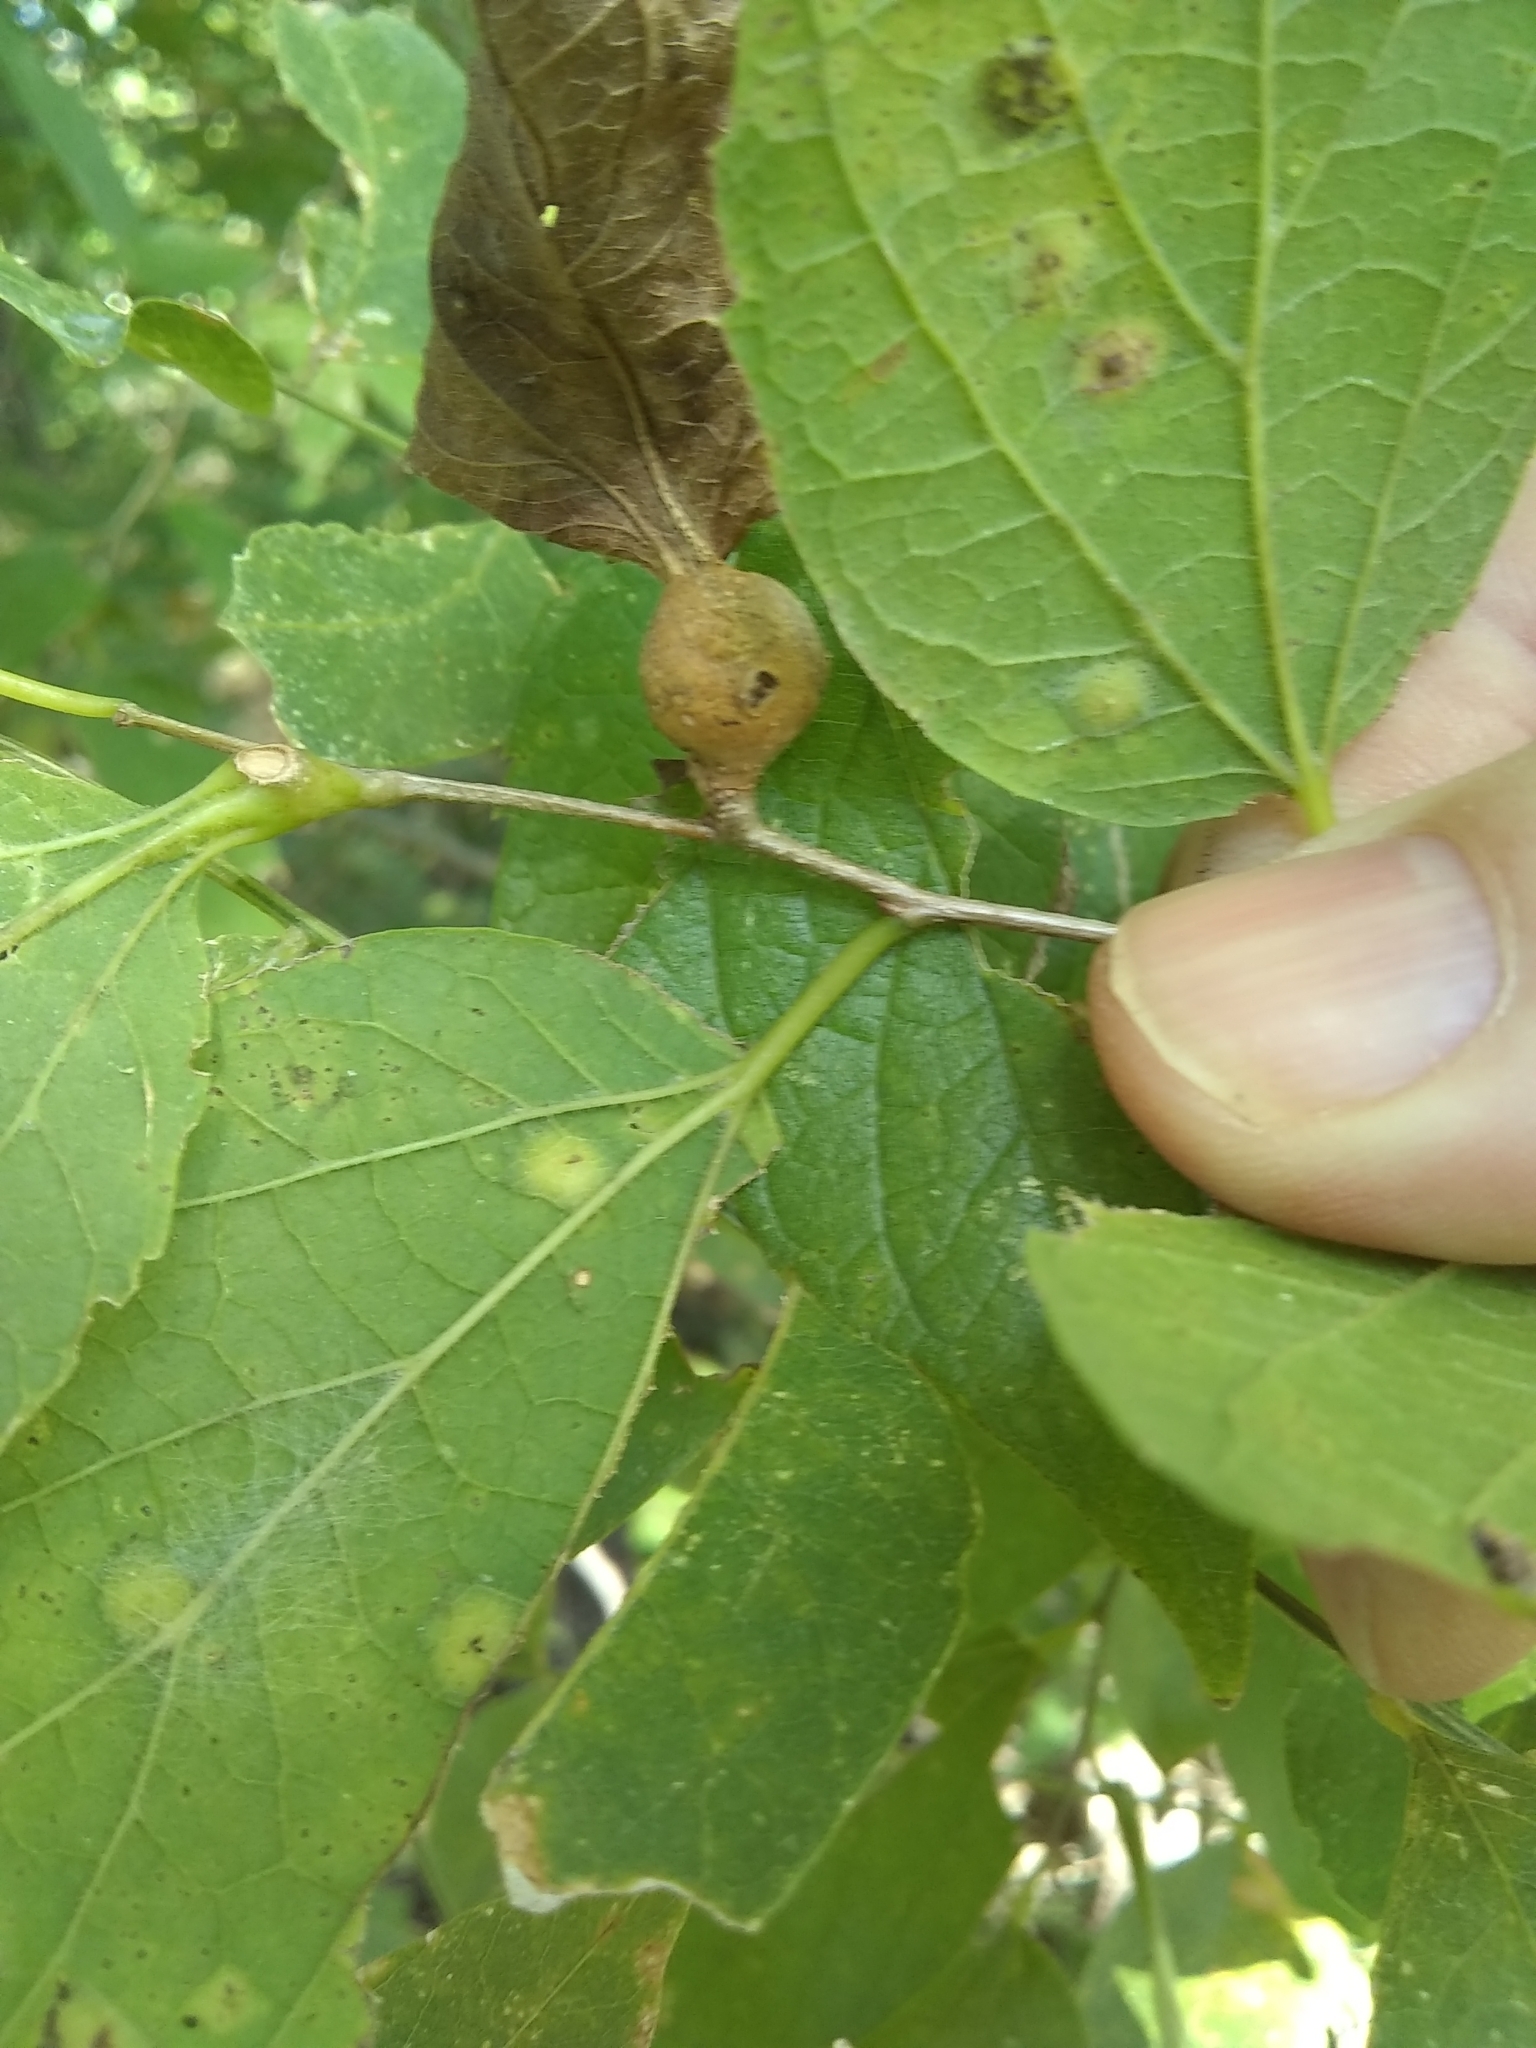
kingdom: Animalia
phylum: Arthropoda
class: Insecta
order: Hemiptera
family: Aphalaridae
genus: Pachypsylla
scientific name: Pachypsylla venusta
